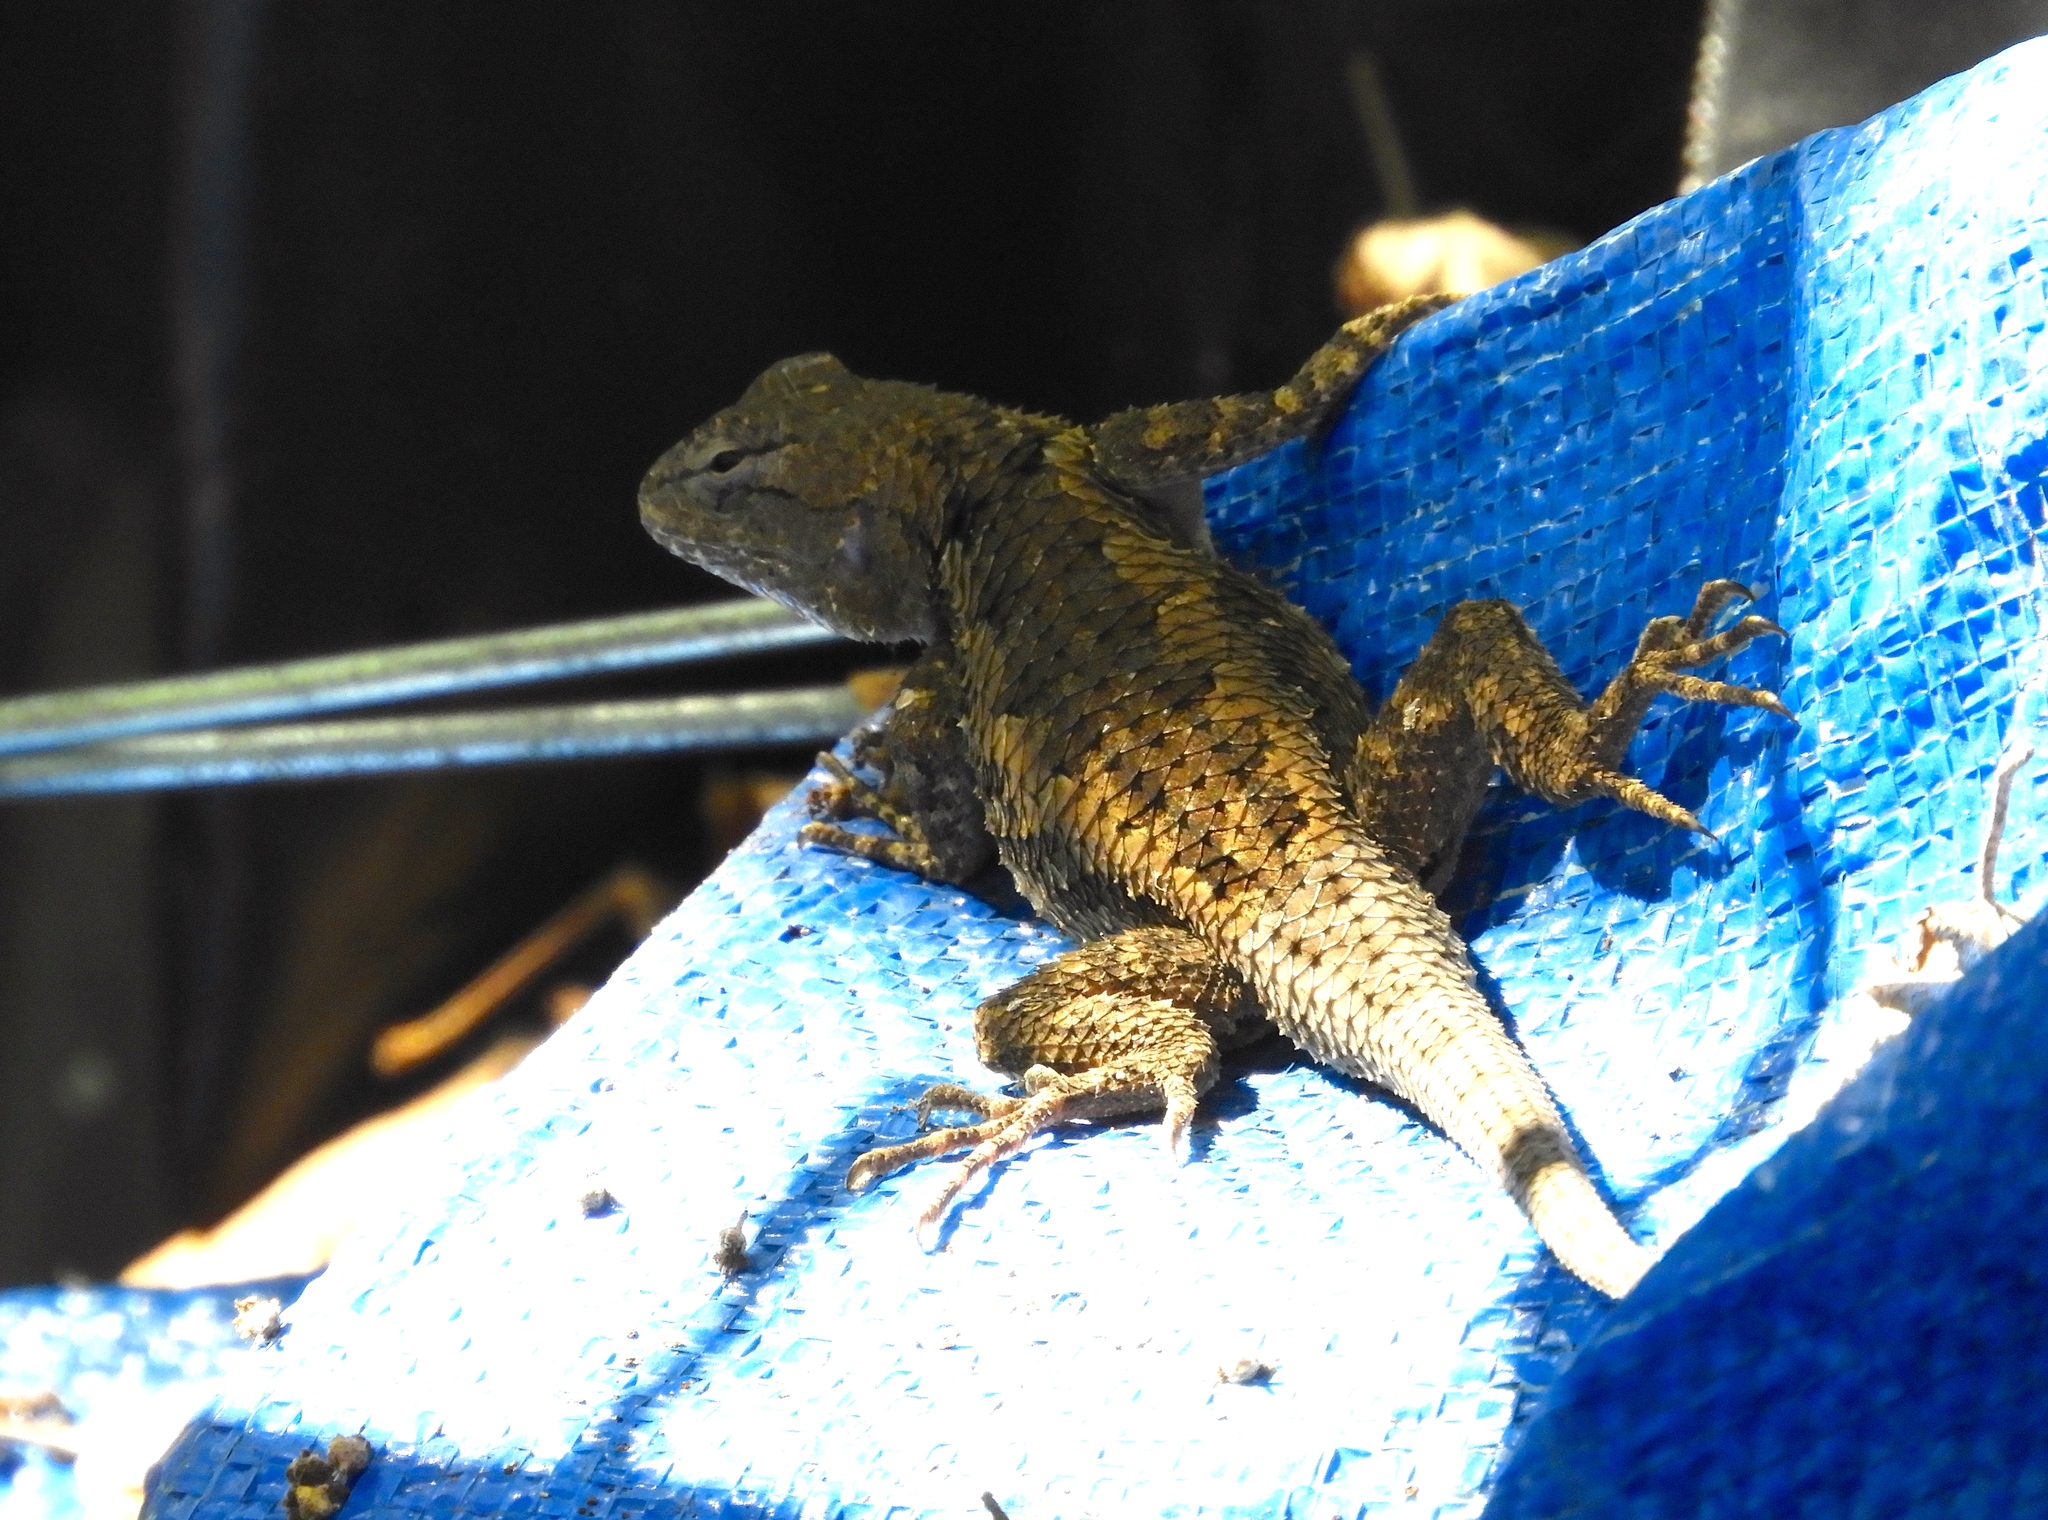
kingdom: Animalia
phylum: Chordata
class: Squamata
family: Phrynosomatidae
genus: Sceloporus
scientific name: Sceloporus clarkii
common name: Clark's spiny lizard
